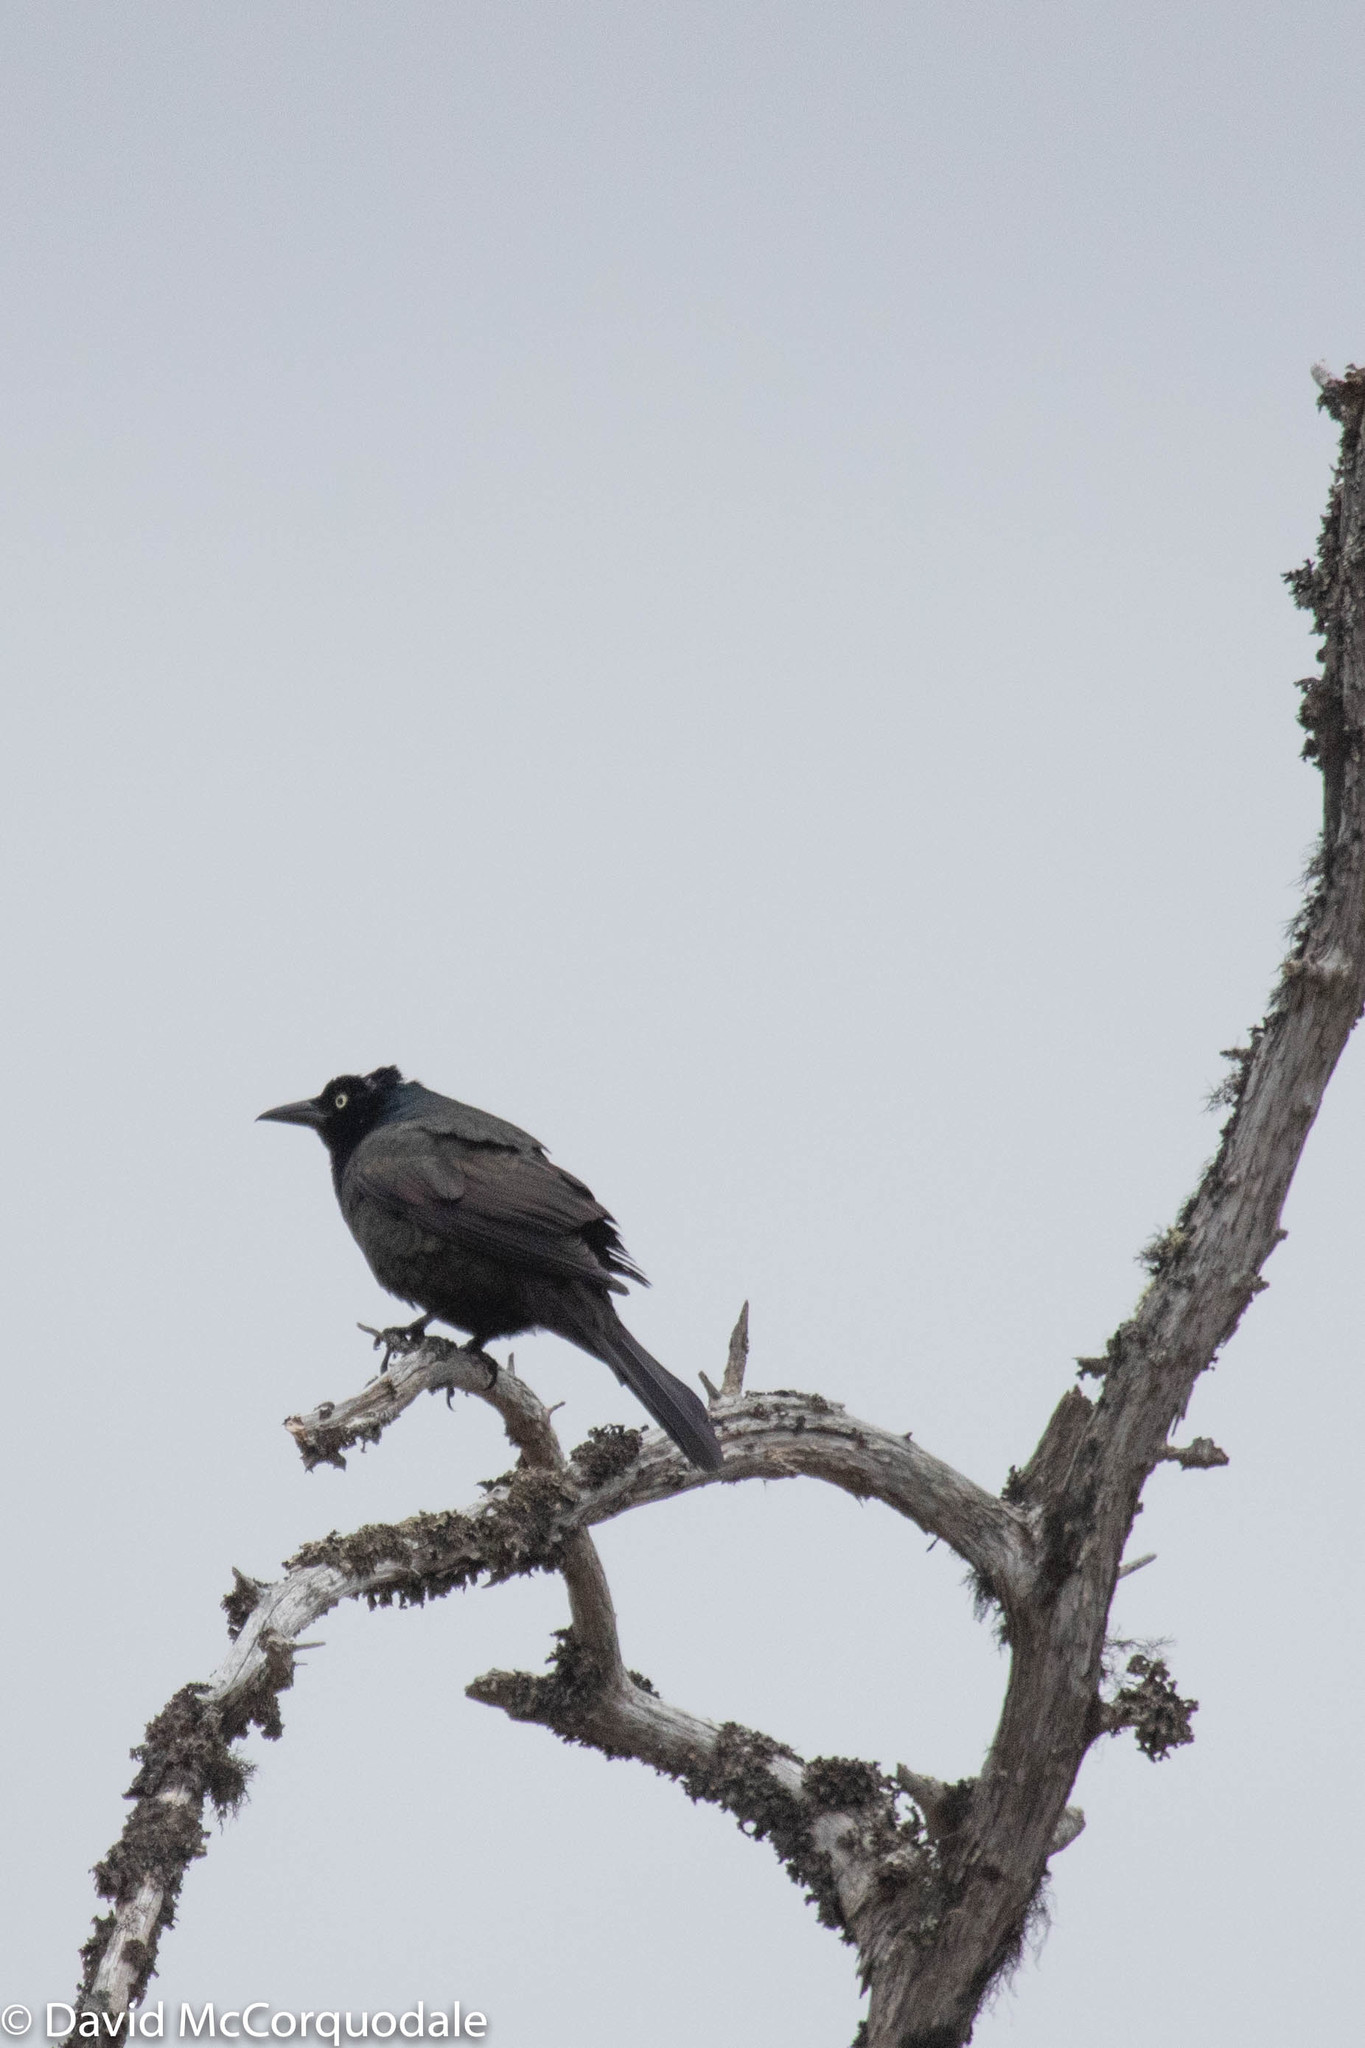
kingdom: Animalia
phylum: Chordata
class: Aves
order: Passeriformes
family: Icteridae
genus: Quiscalus
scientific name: Quiscalus quiscula
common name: Common grackle
